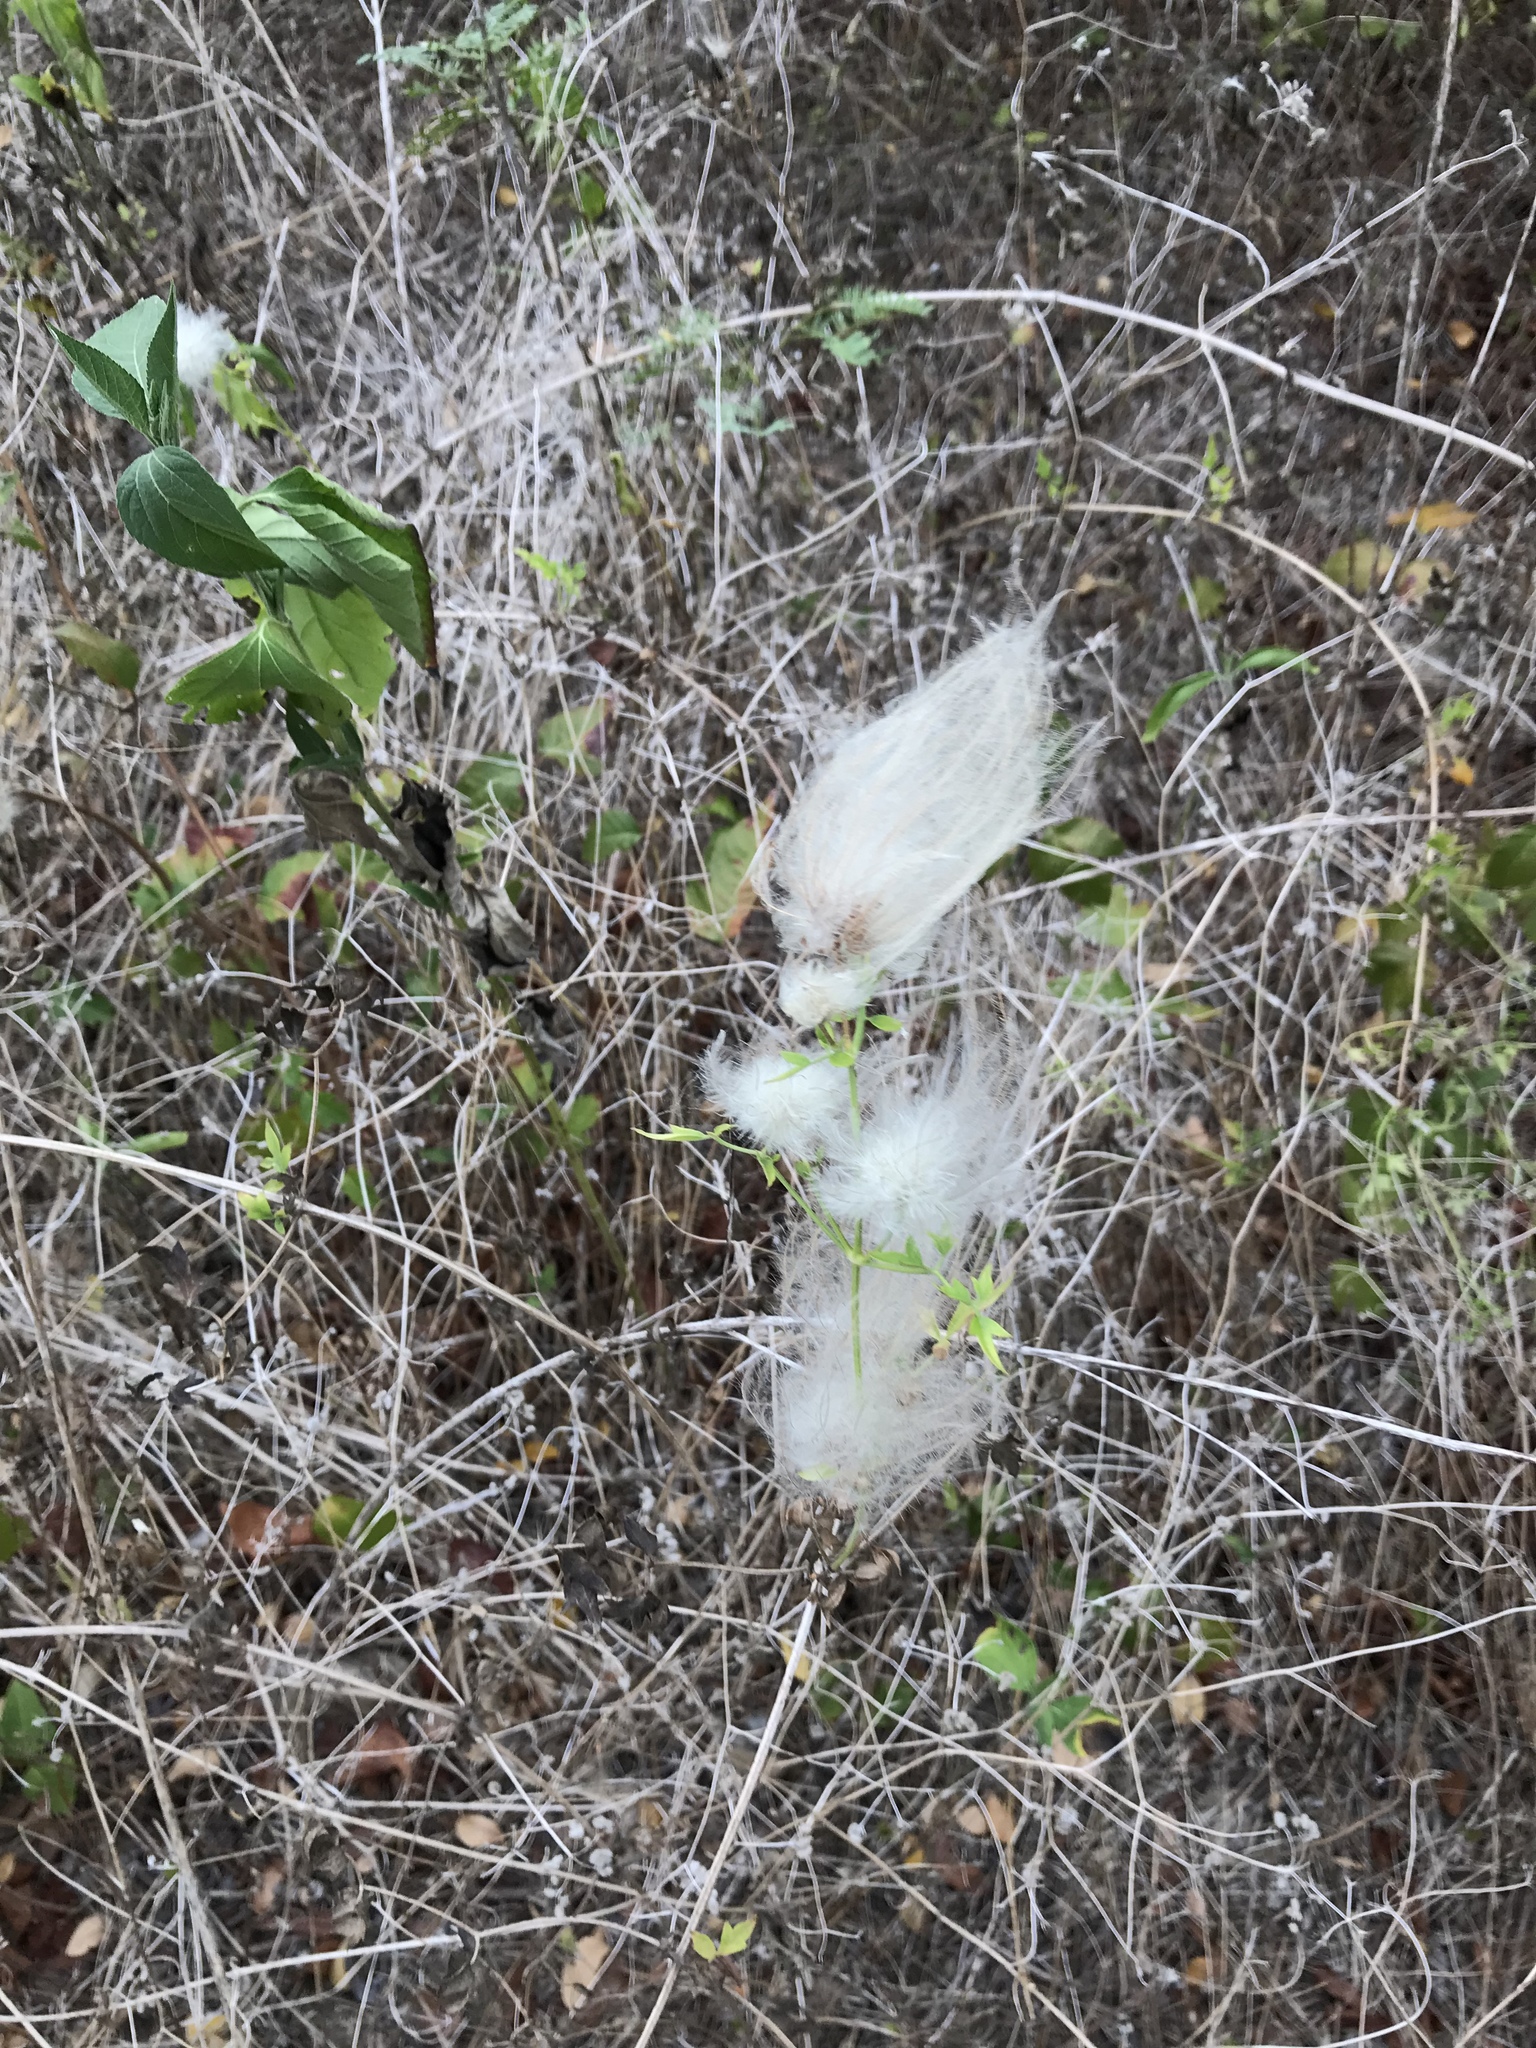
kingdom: Plantae
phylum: Tracheophyta
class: Magnoliopsida
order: Ranunculales
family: Ranunculaceae
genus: Clematis
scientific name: Clematis drummondii
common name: Texas virgin's bower
